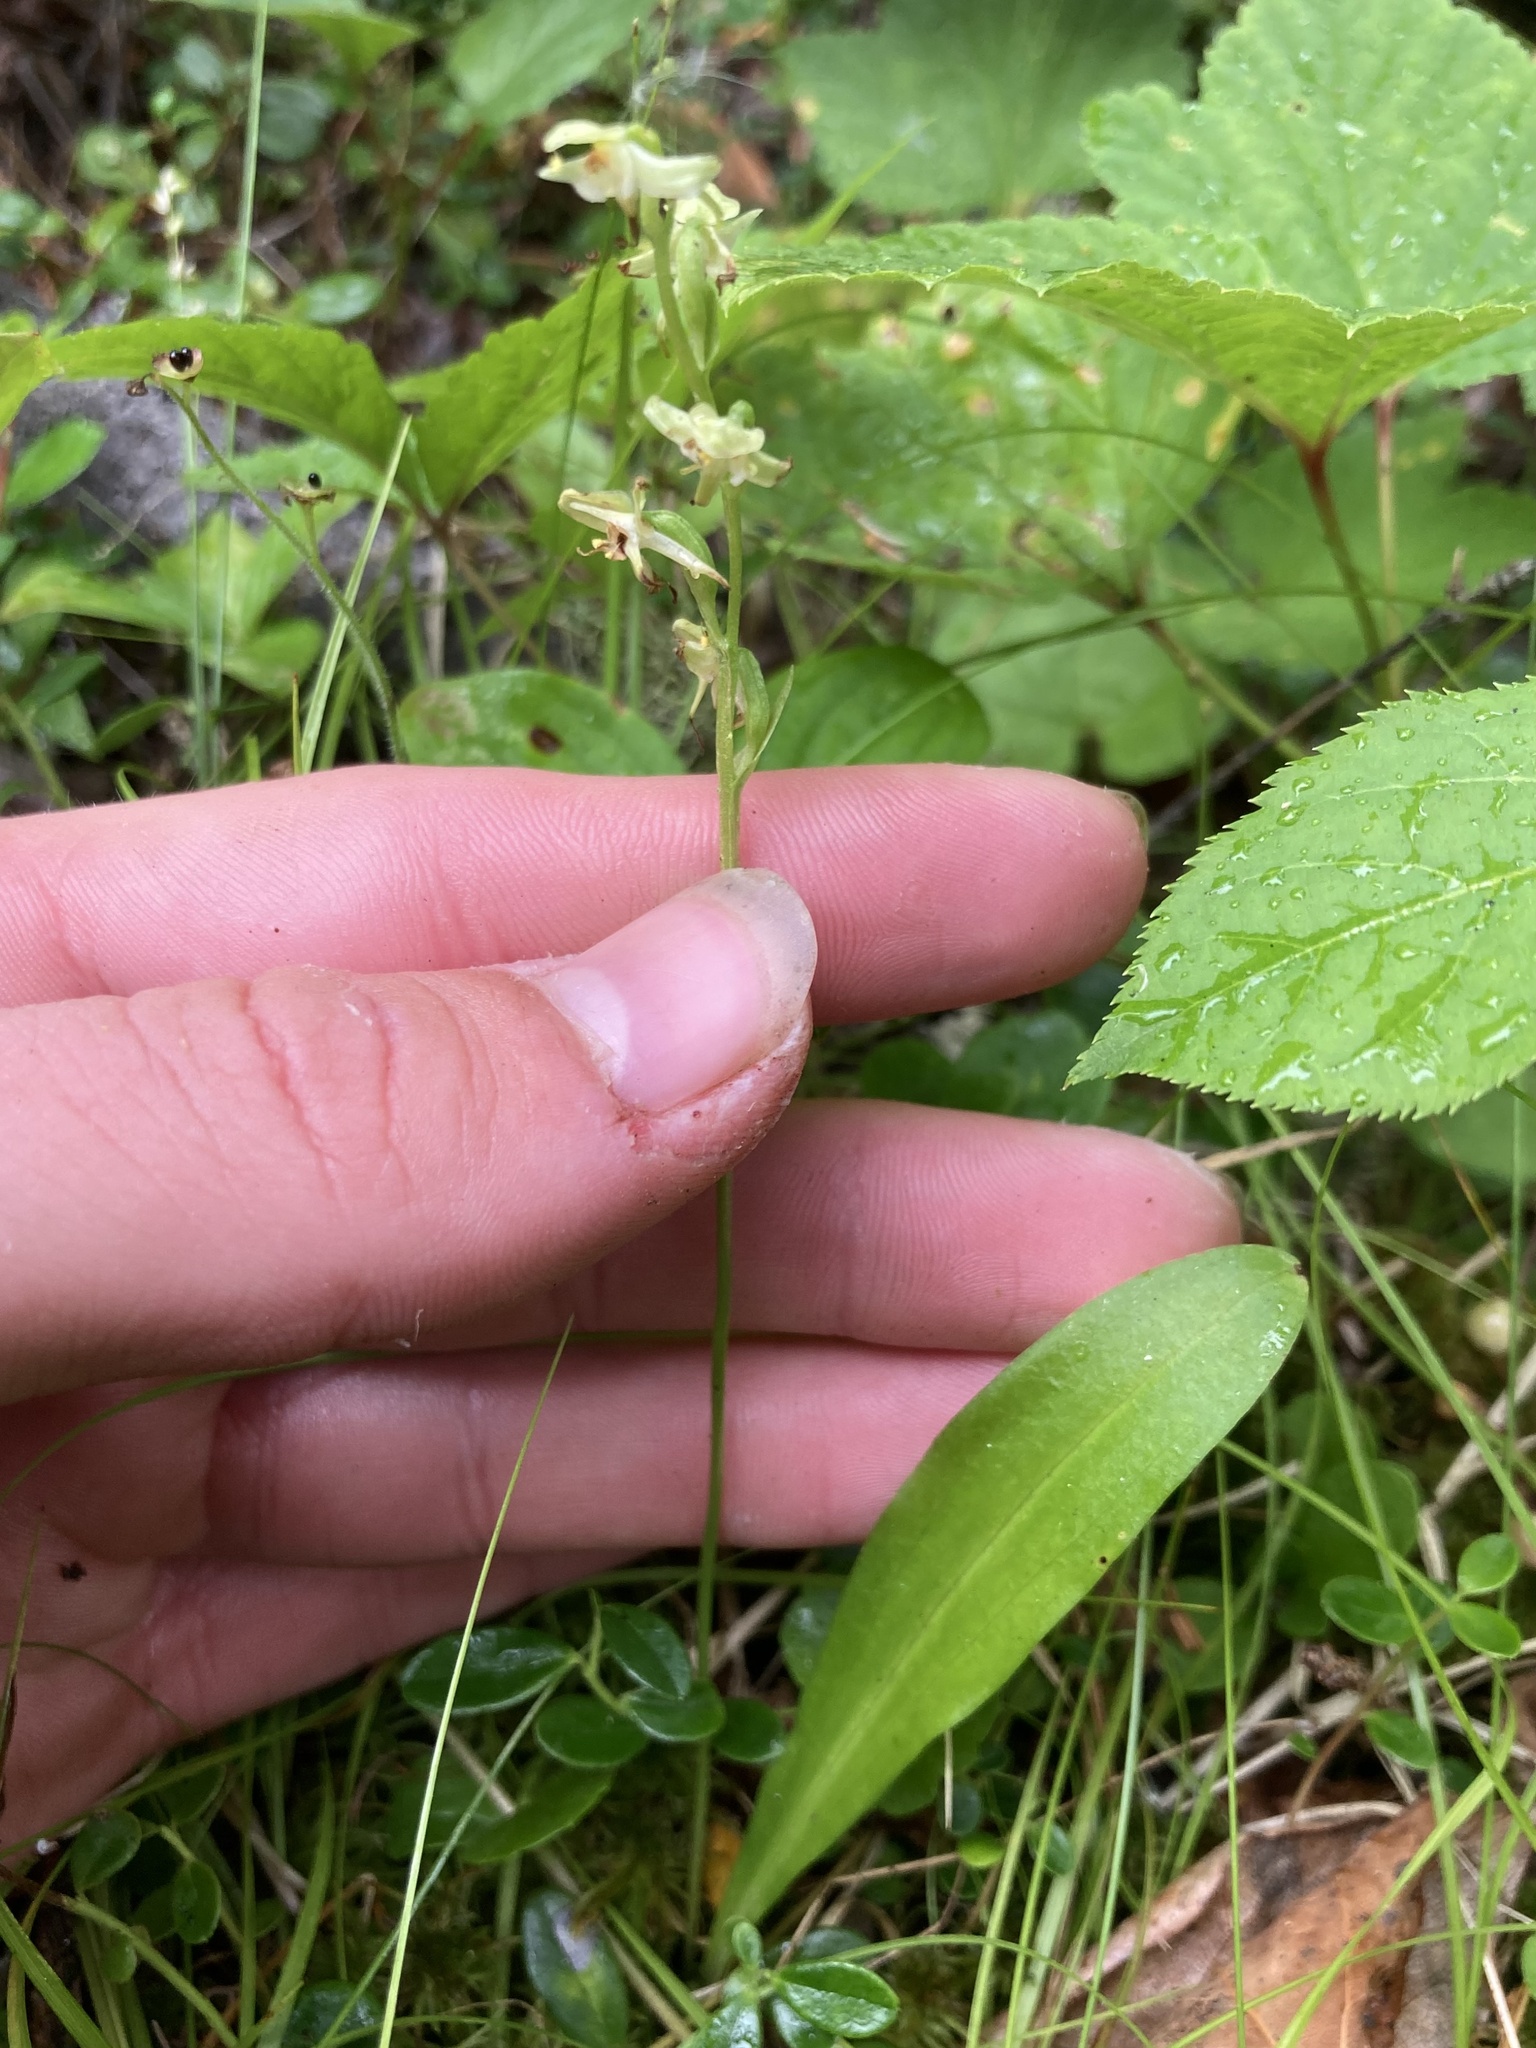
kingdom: Plantae
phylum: Tracheophyta
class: Liliopsida
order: Asparagales
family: Orchidaceae
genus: Platanthera
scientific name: Platanthera obtusata
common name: Blunt bog orchid
